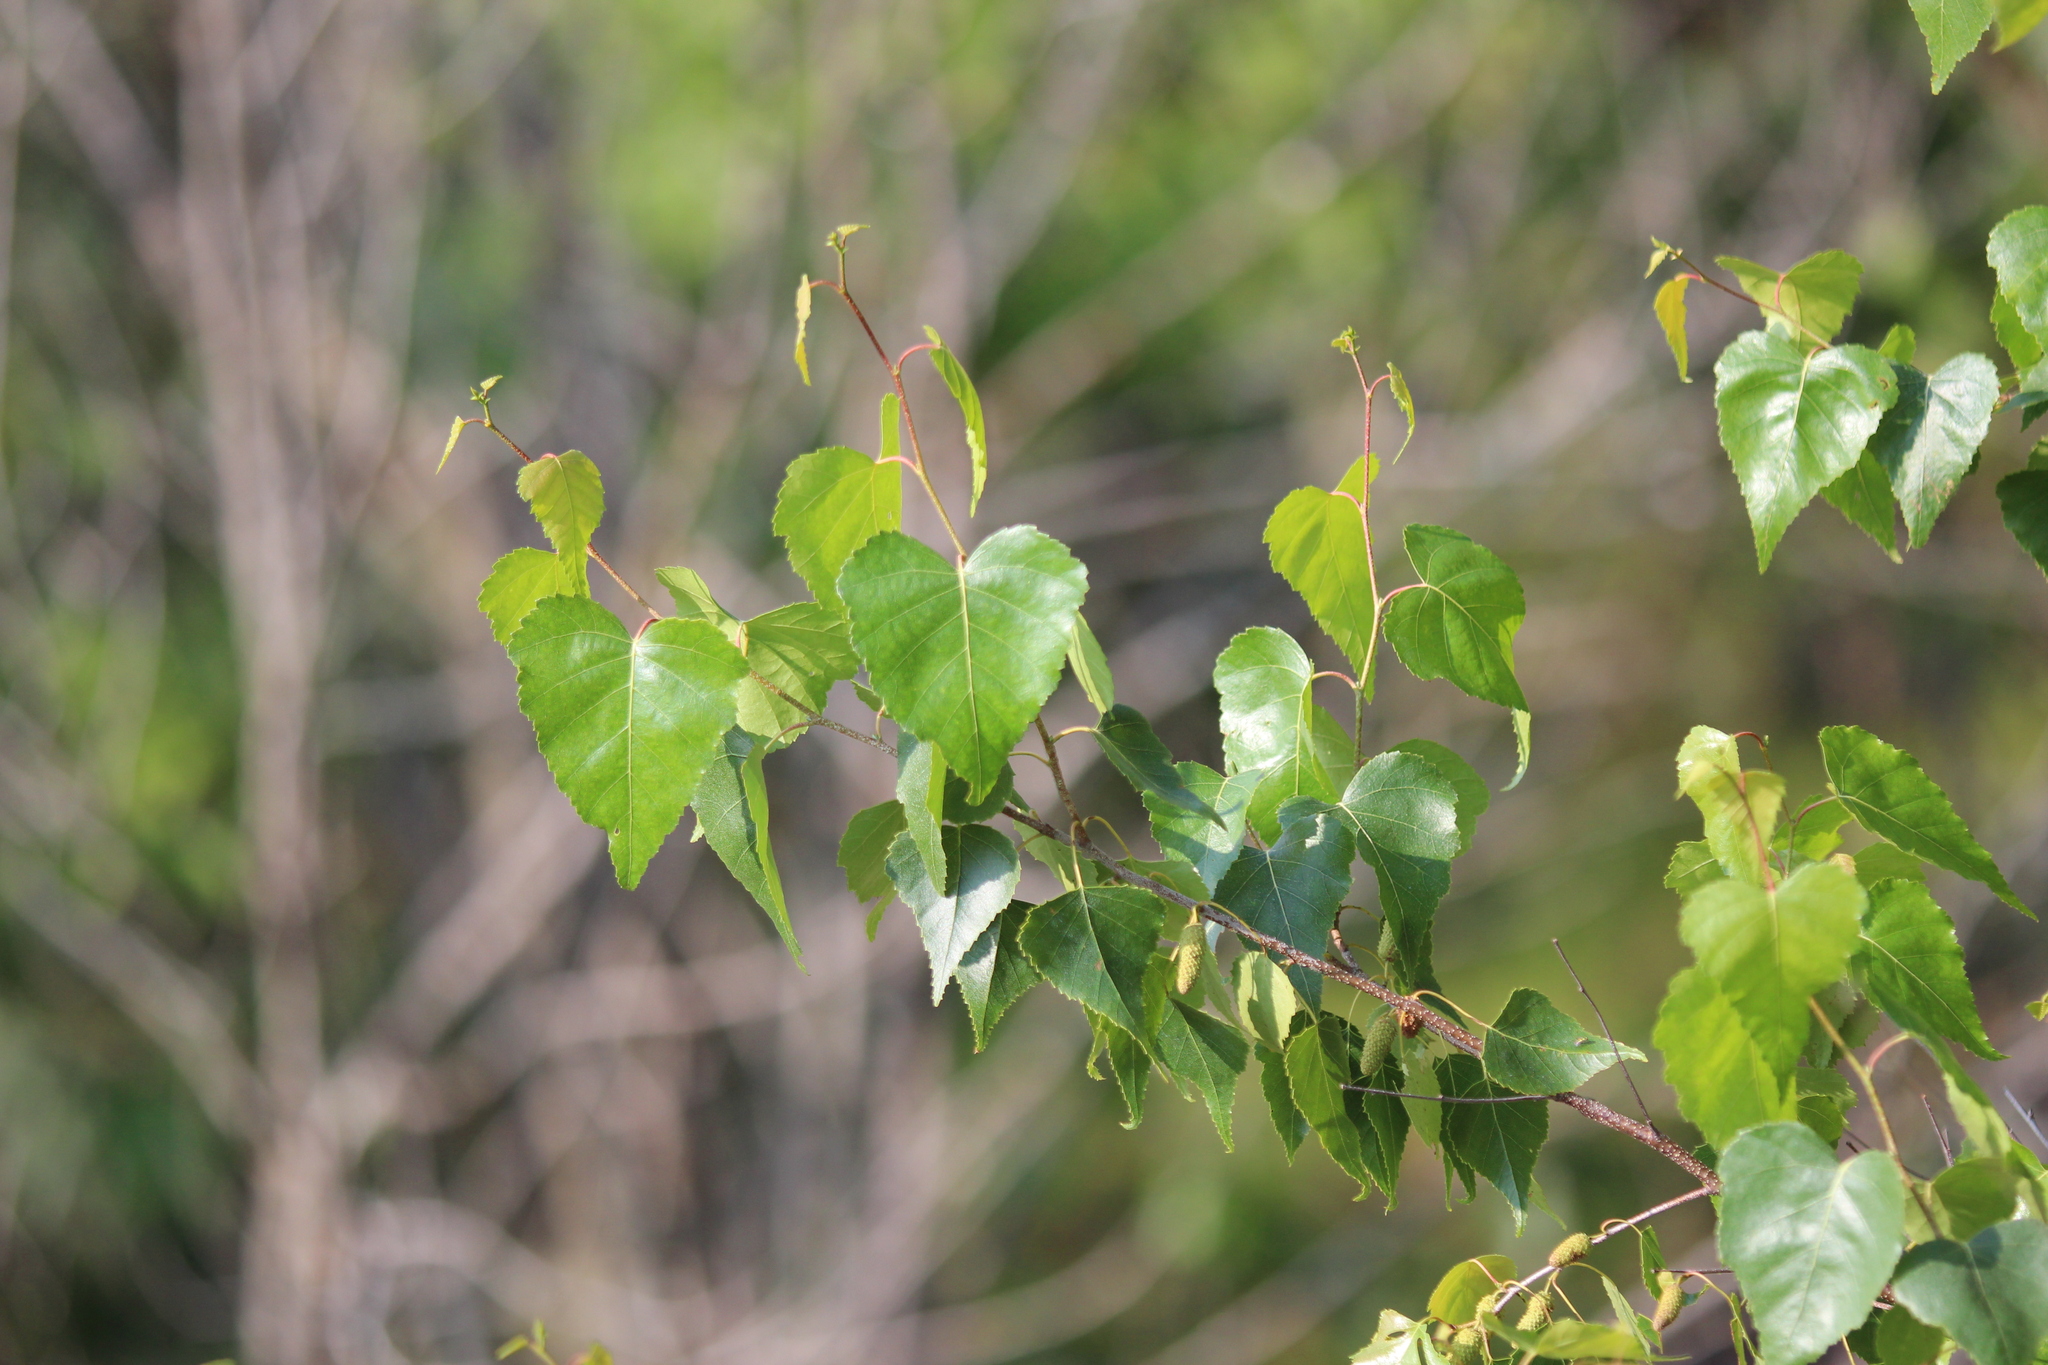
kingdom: Plantae
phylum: Tracheophyta
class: Magnoliopsida
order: Fagales
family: Betulaceae
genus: Betula
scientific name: Betula populifolia
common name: Fire birch
